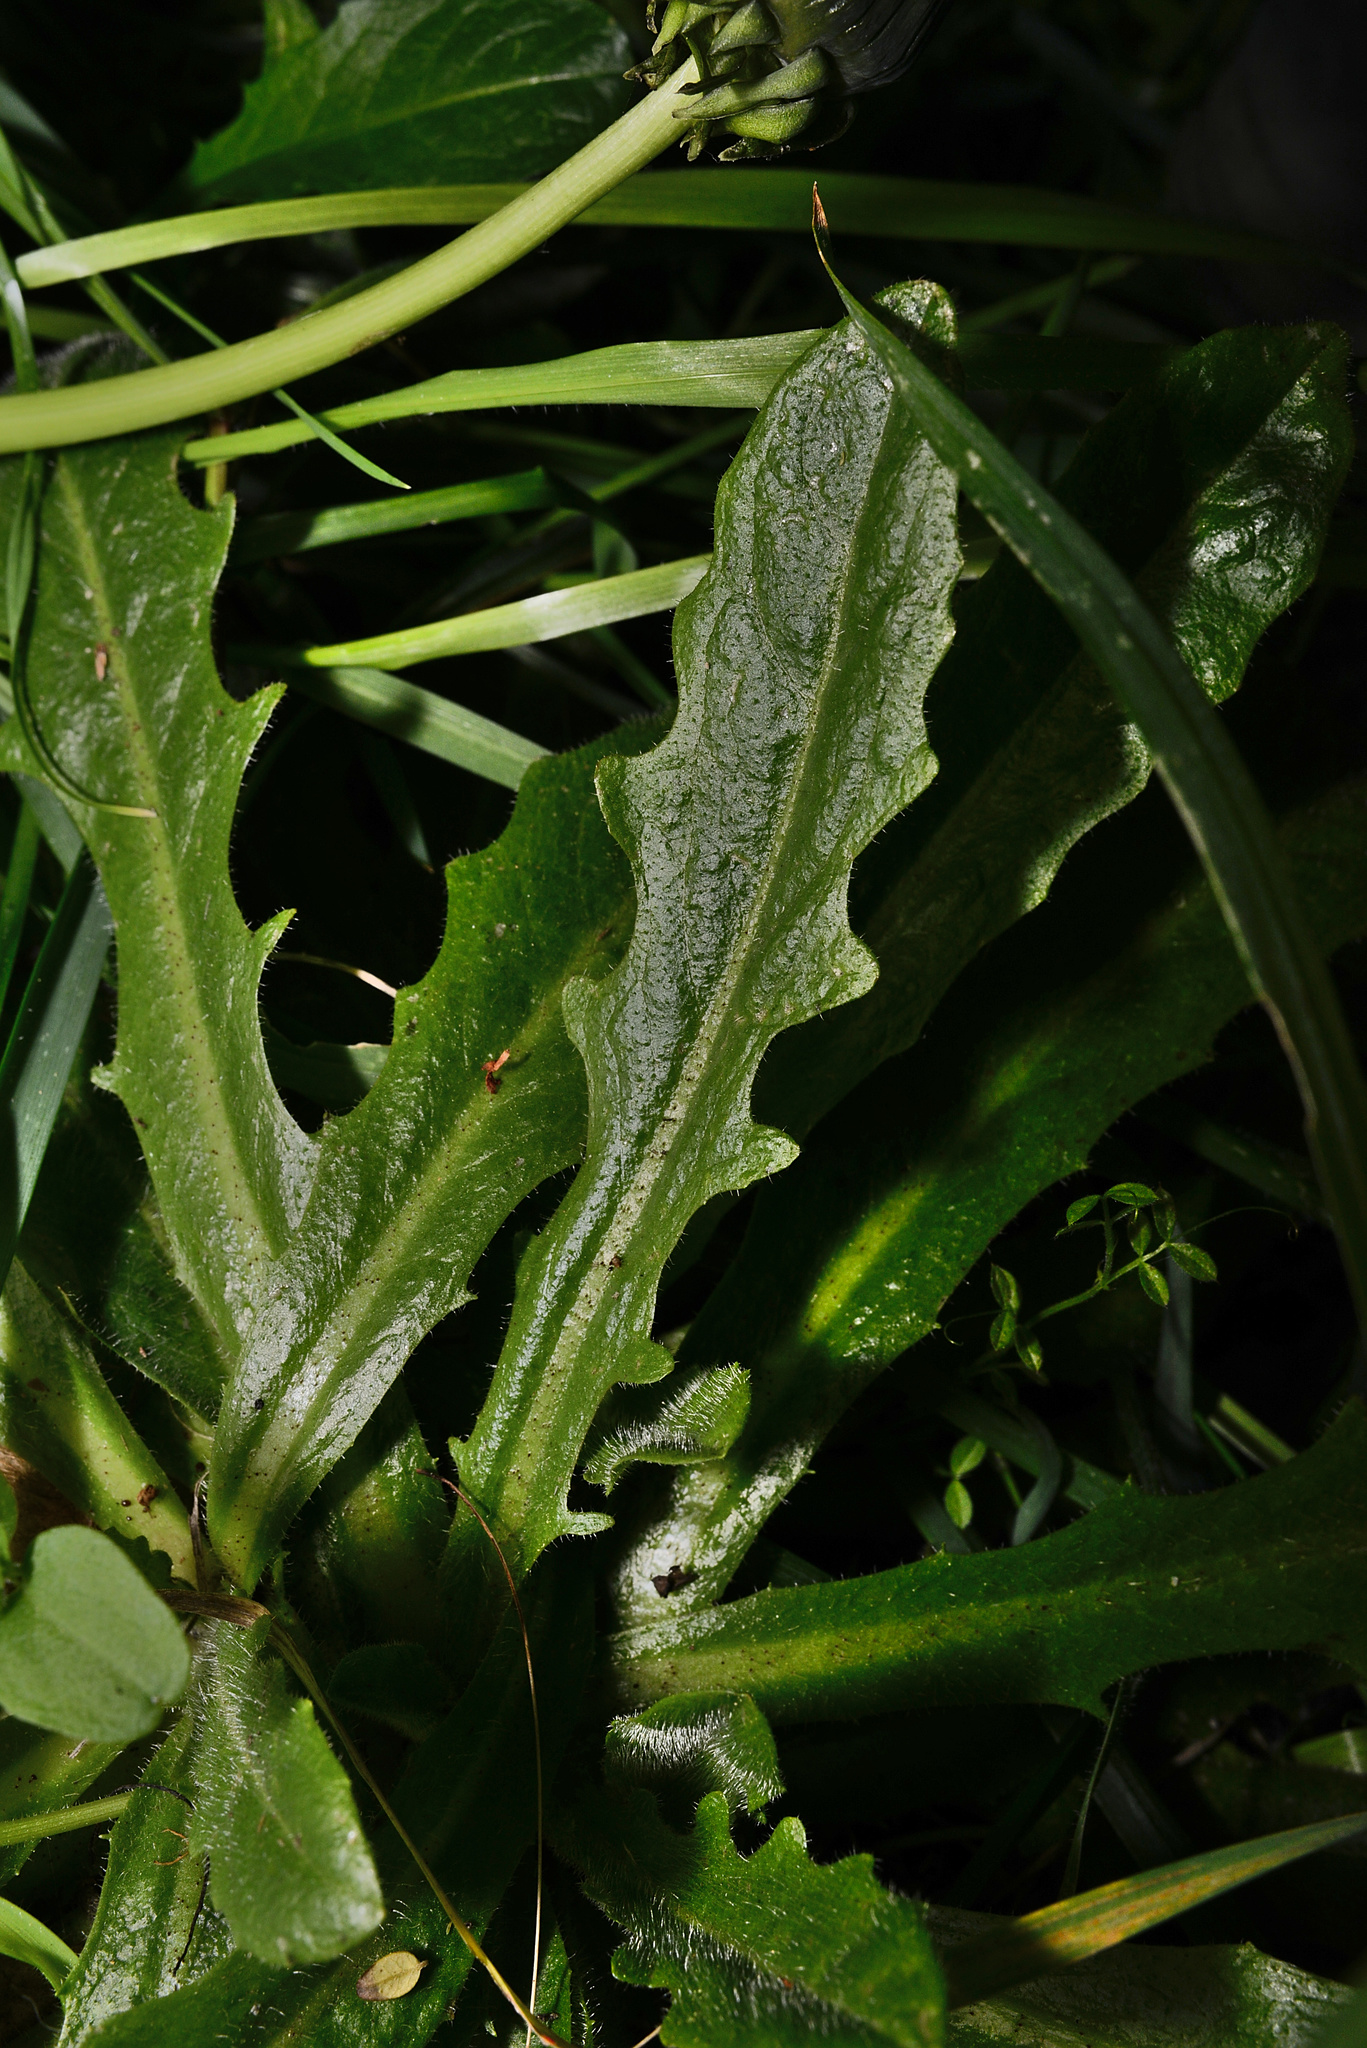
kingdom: Plantae
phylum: Tracheophyta
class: Magnoliopsida
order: Asterales
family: Asteraceae
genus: Hypochaeris
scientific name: Hypochaeris radicata
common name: Flatweed
